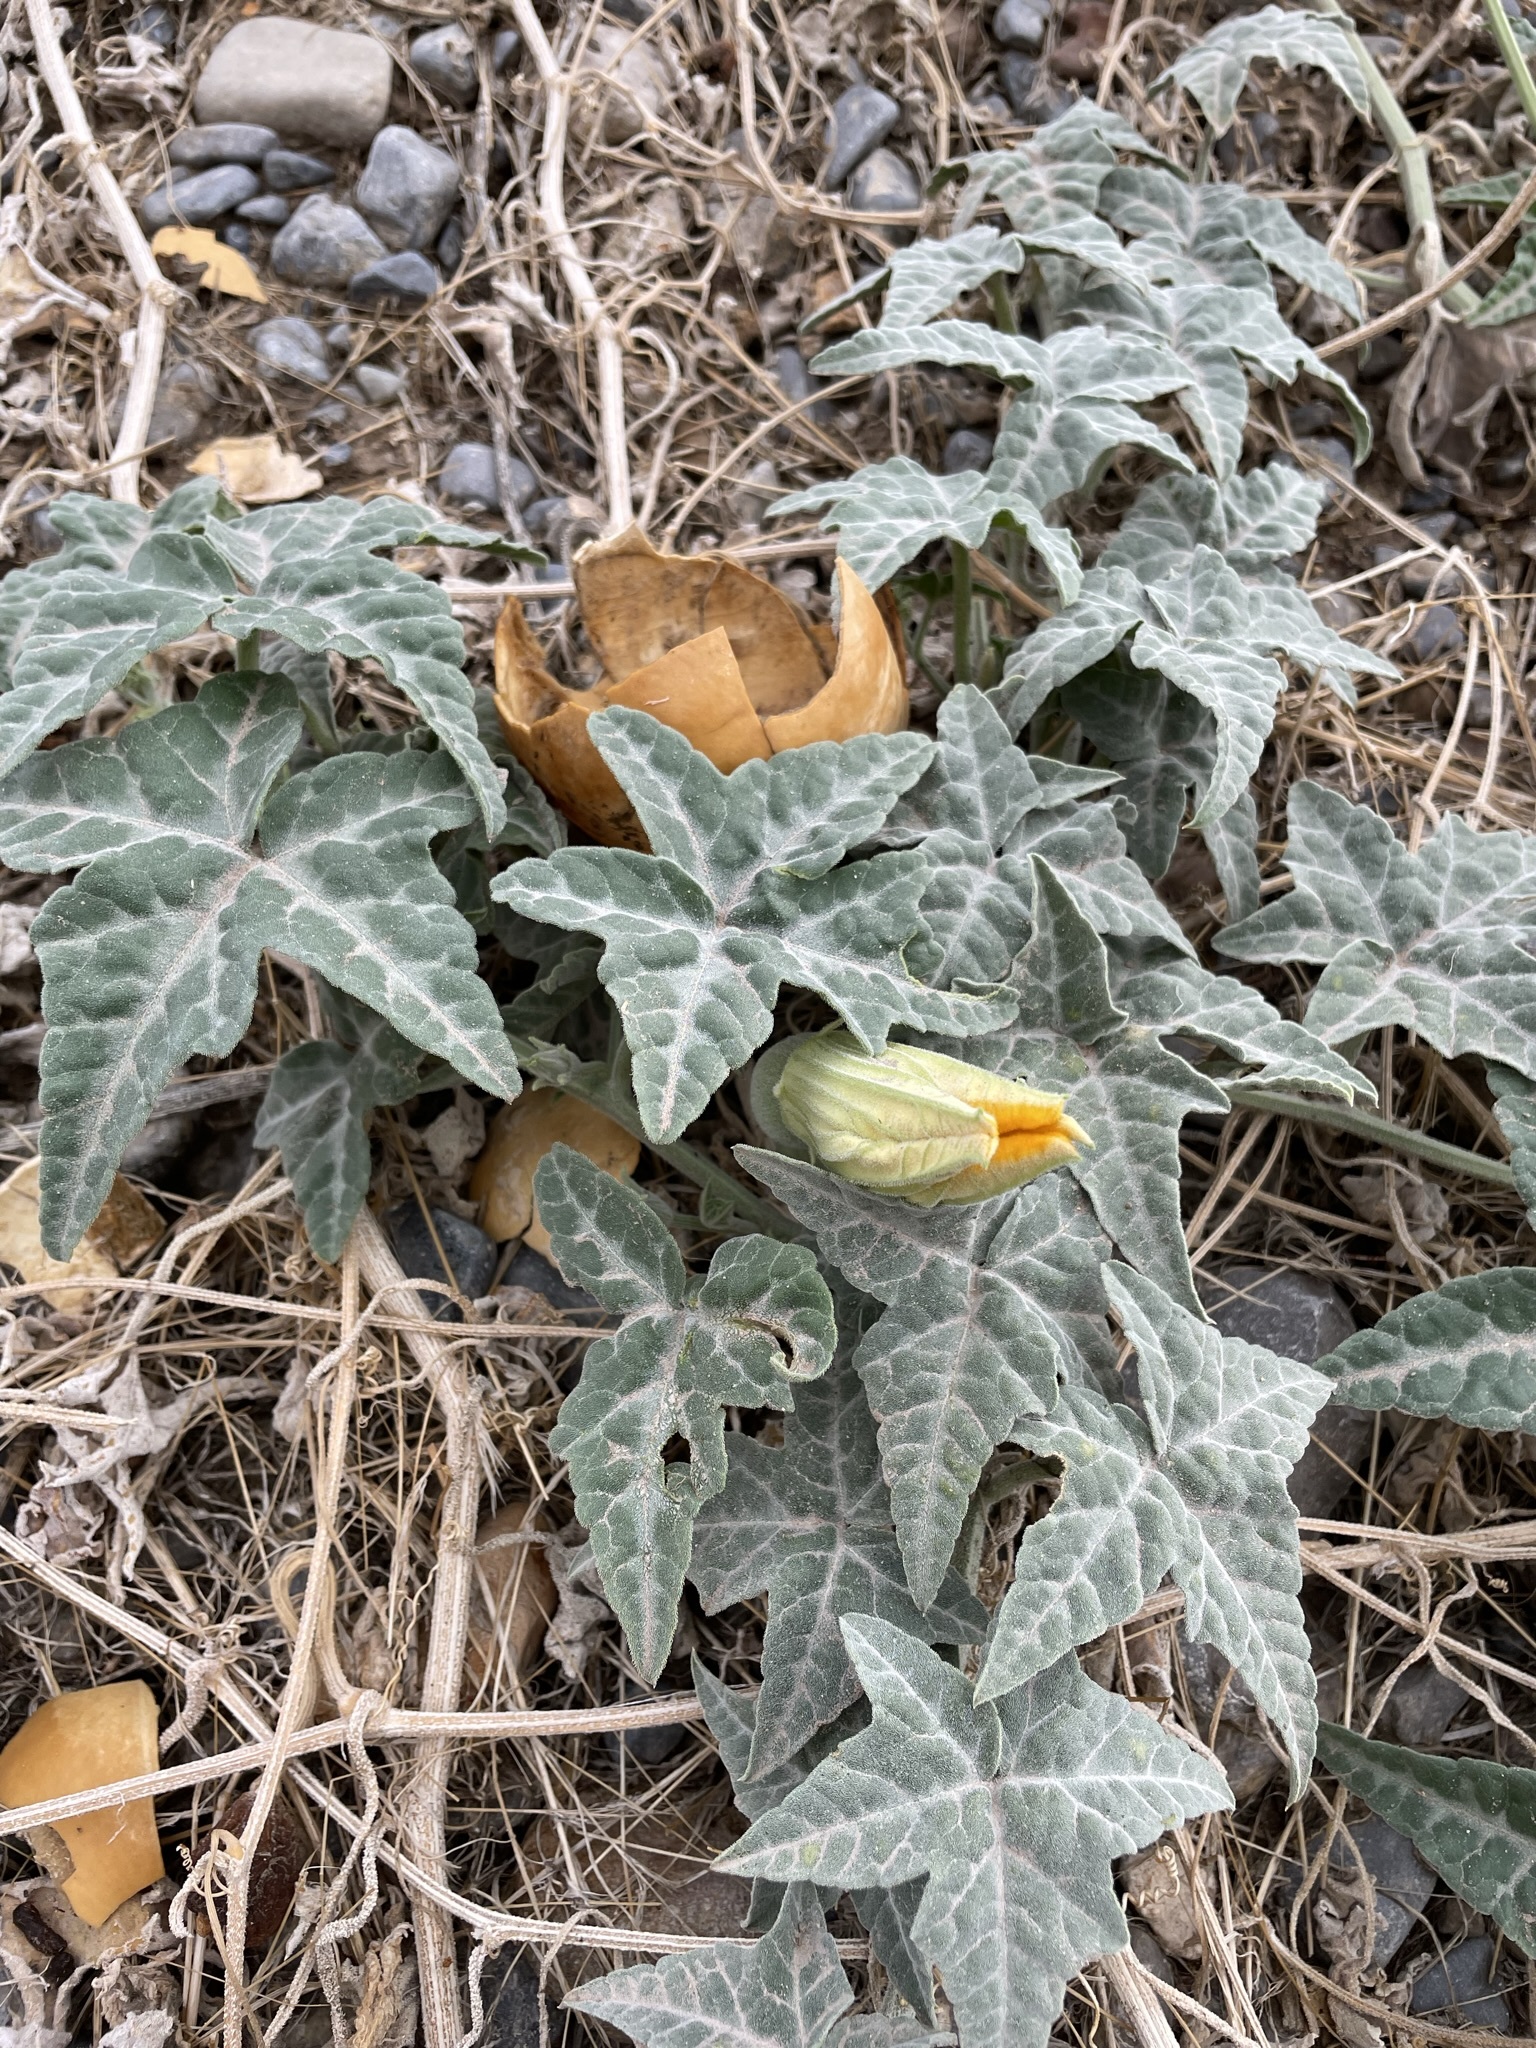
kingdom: Plantae
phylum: Tracheophyta
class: Magnoliopsida
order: Cucurbitales
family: Cucurbitaceae
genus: Cucurbita
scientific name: Cucurbita palmata
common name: Coyote-melon
